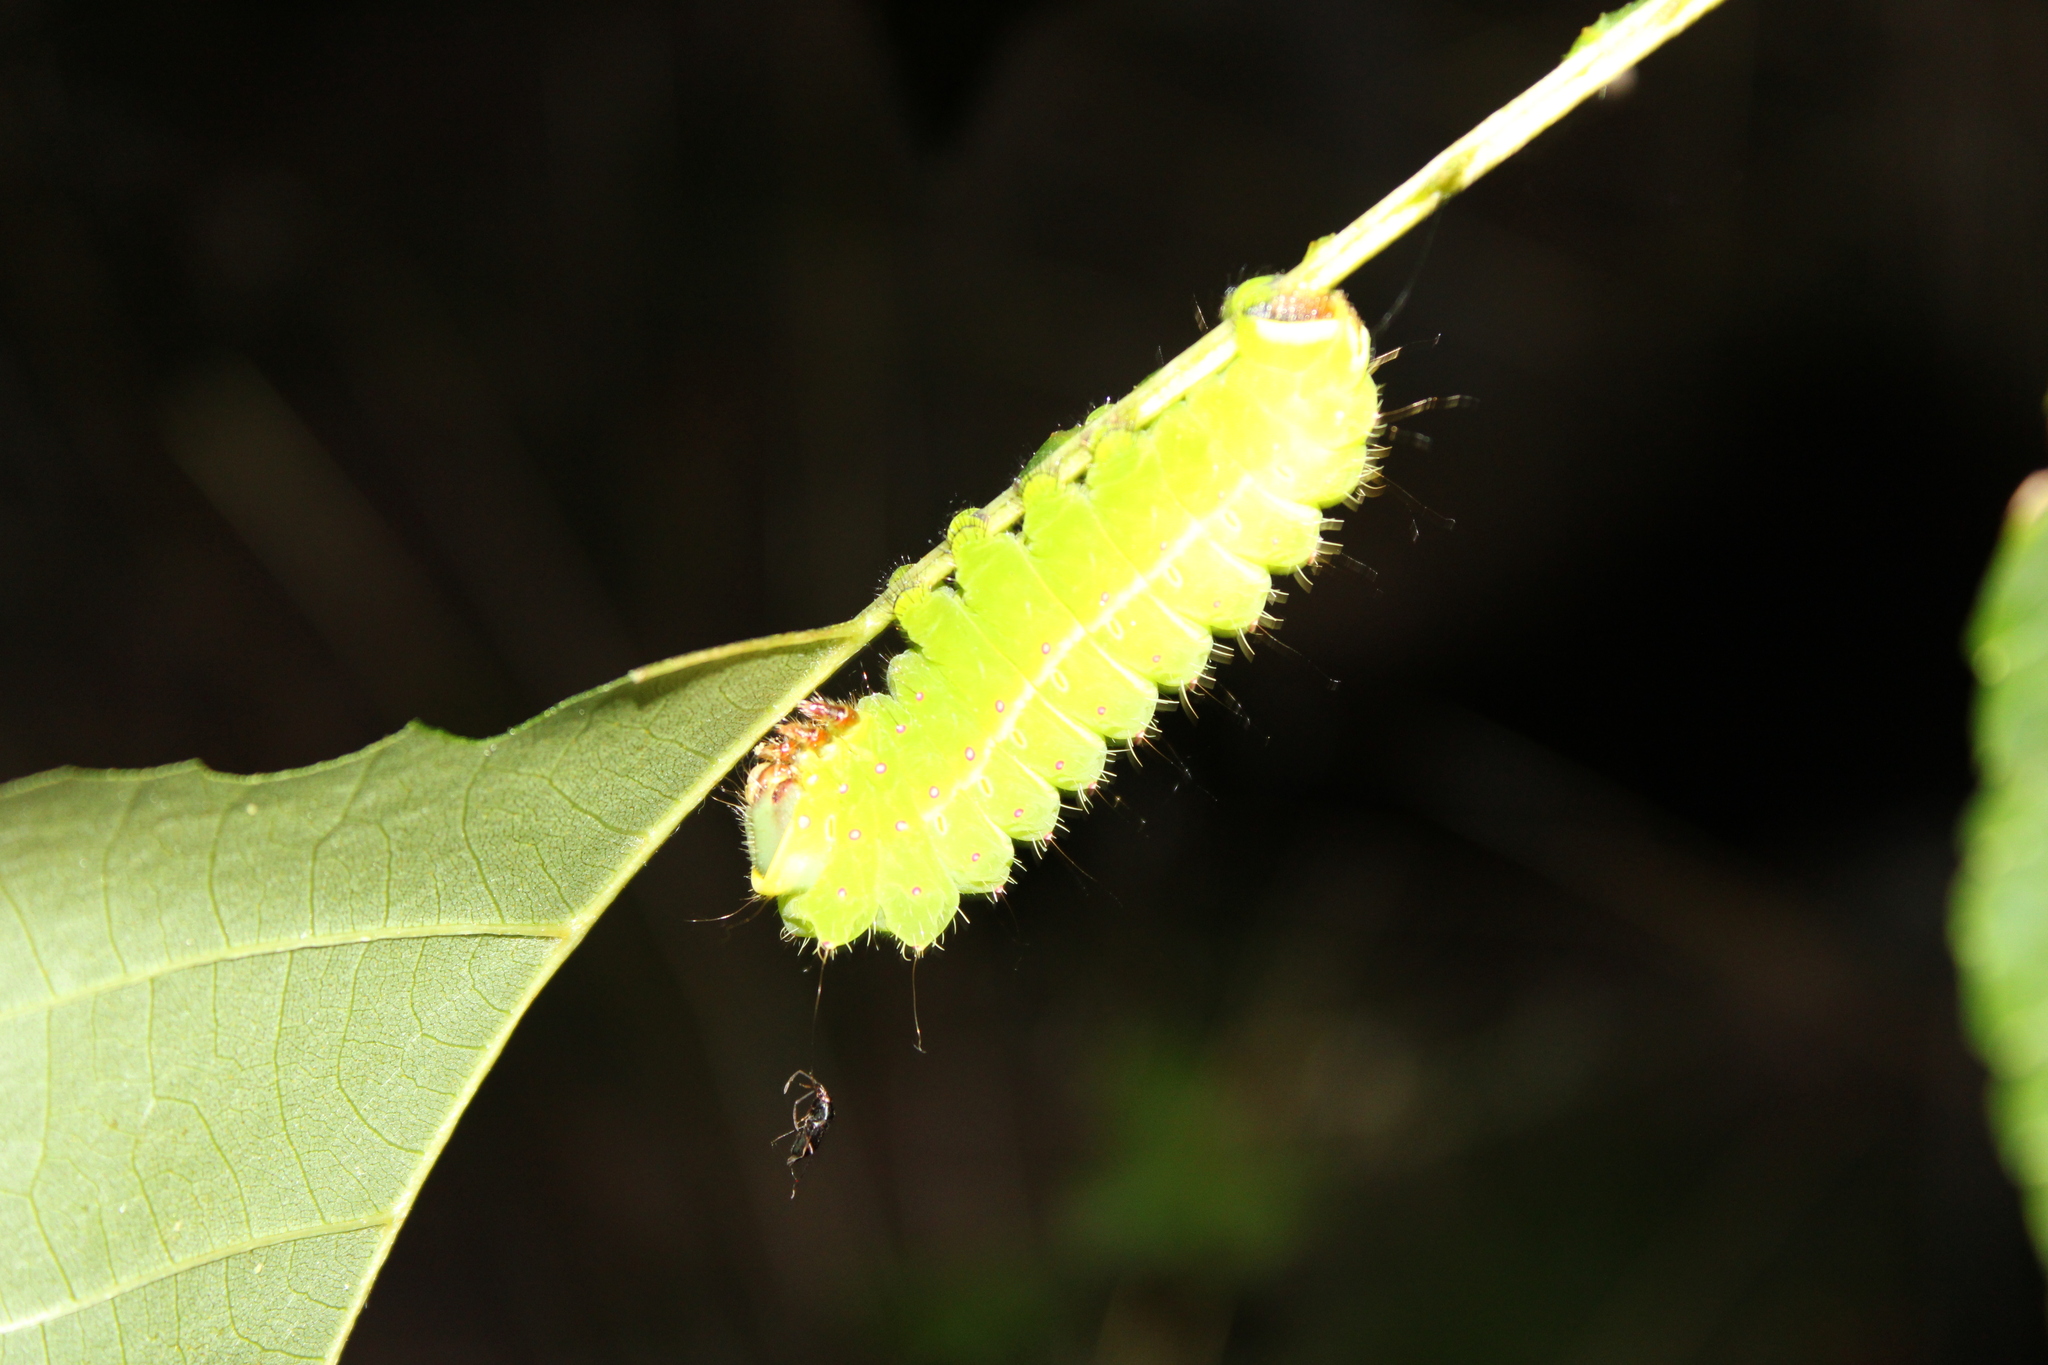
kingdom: Animalia
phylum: Arthropoda
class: Insecta
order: Lepidoptera
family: Saturniidae
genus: Actias
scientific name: Actias luna
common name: Luna moth
